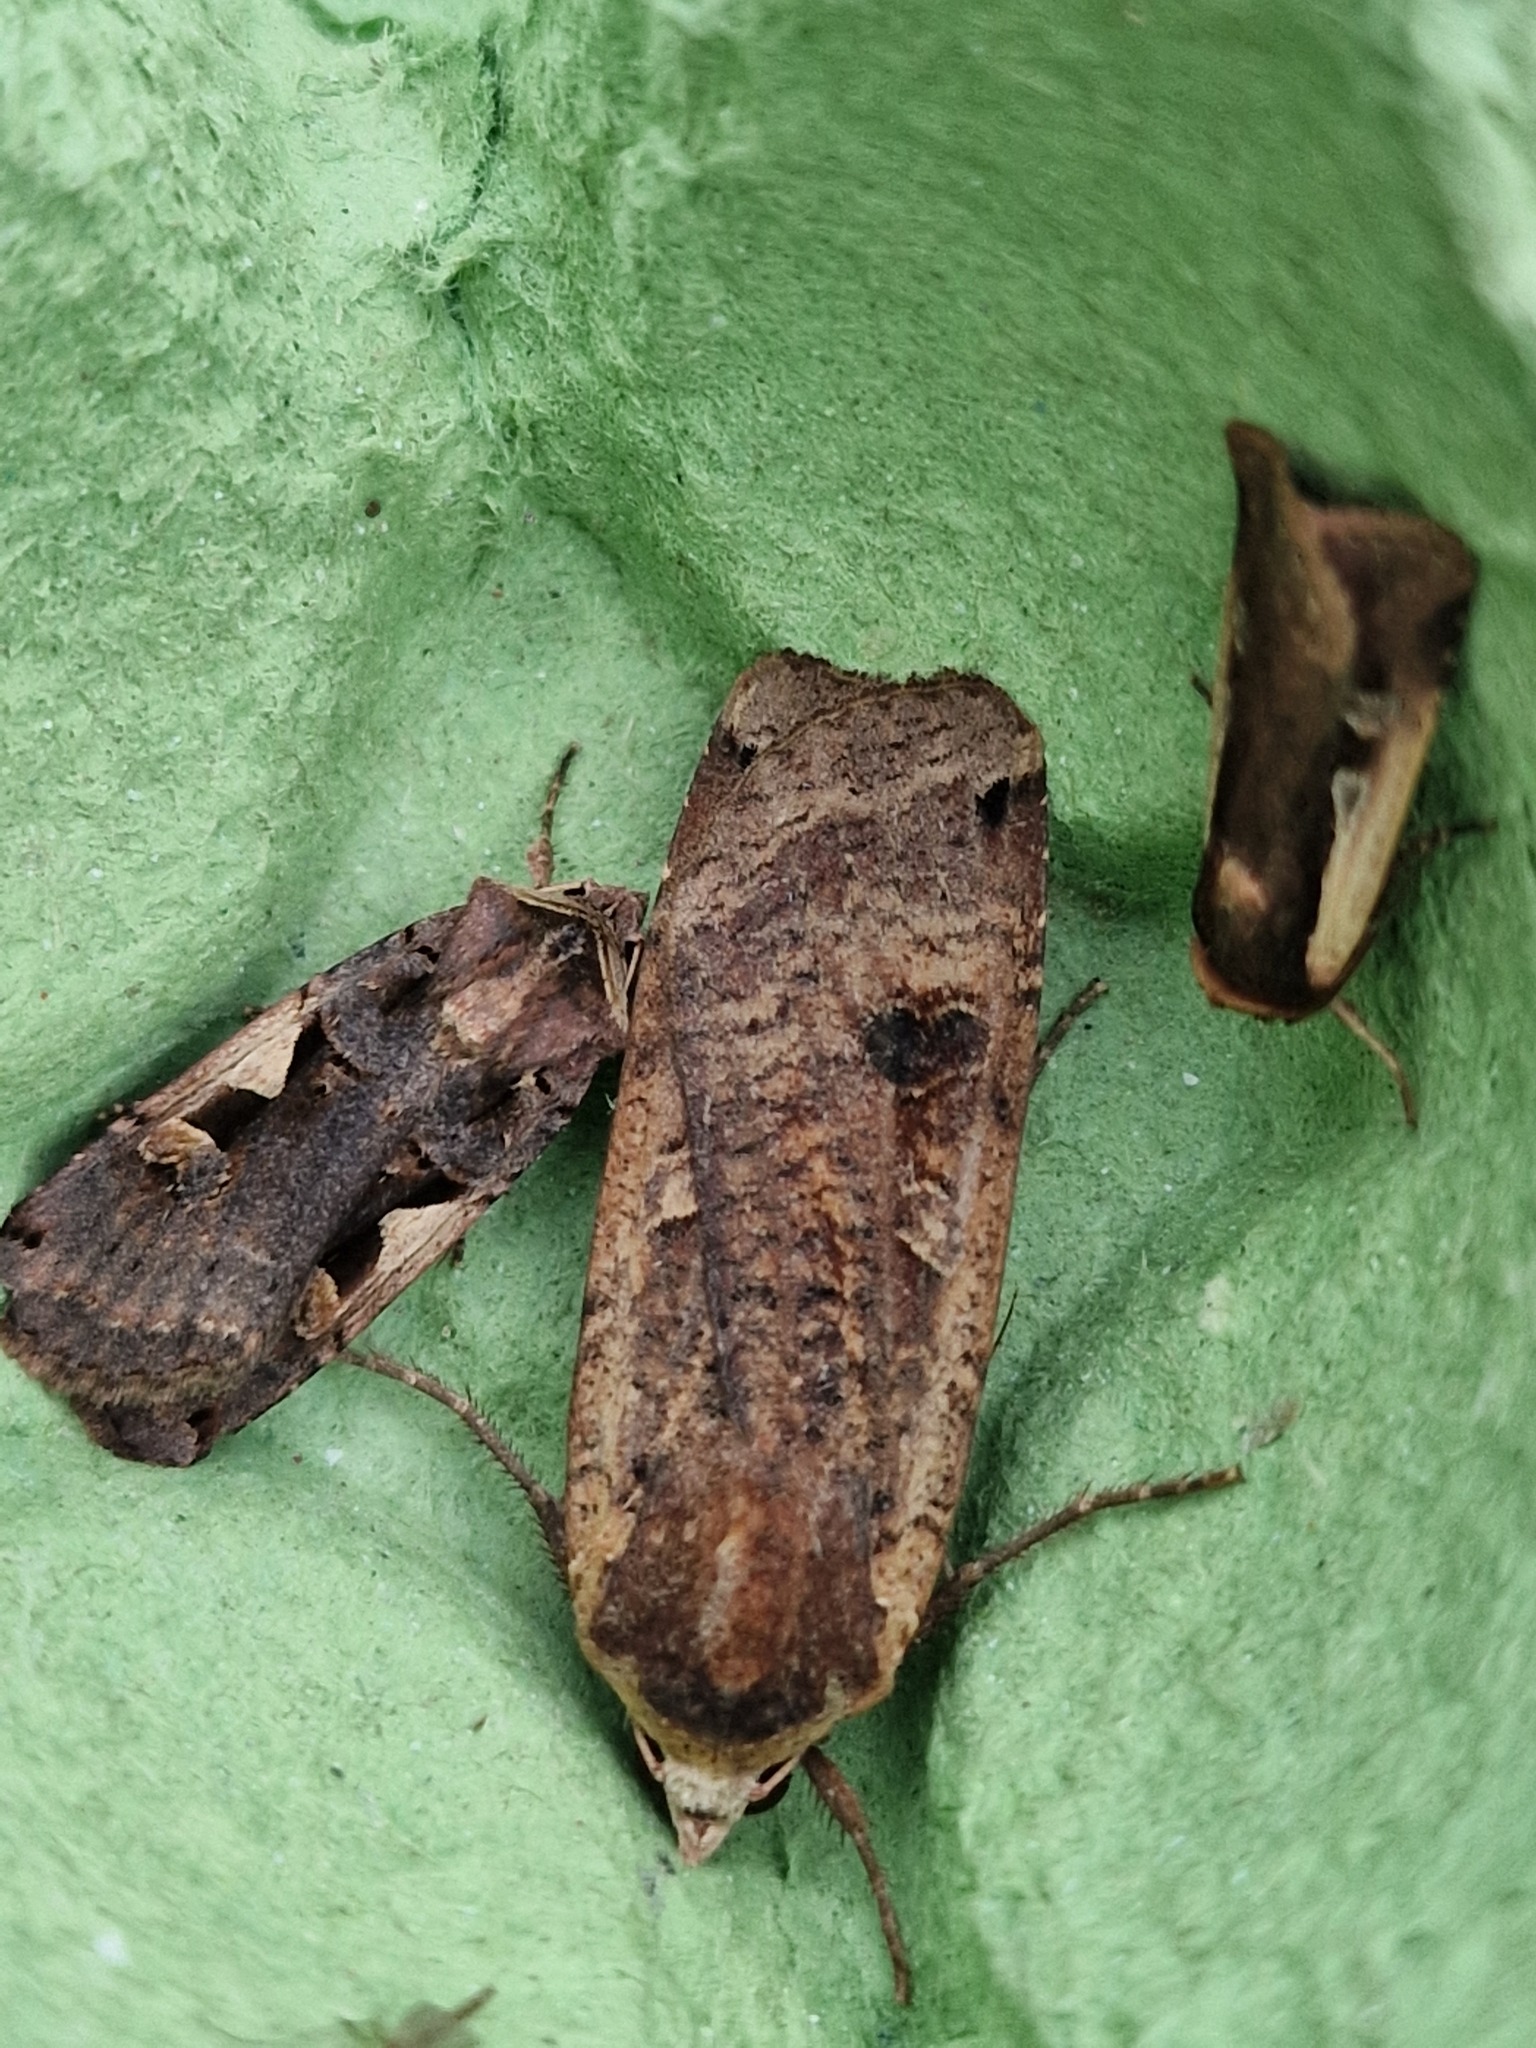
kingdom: Animalia
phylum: Arthropoda
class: Insecta
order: Lepidoptera
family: Noctuidae
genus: Noctua
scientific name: Noctua pronuba
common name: Large yellow underwing
